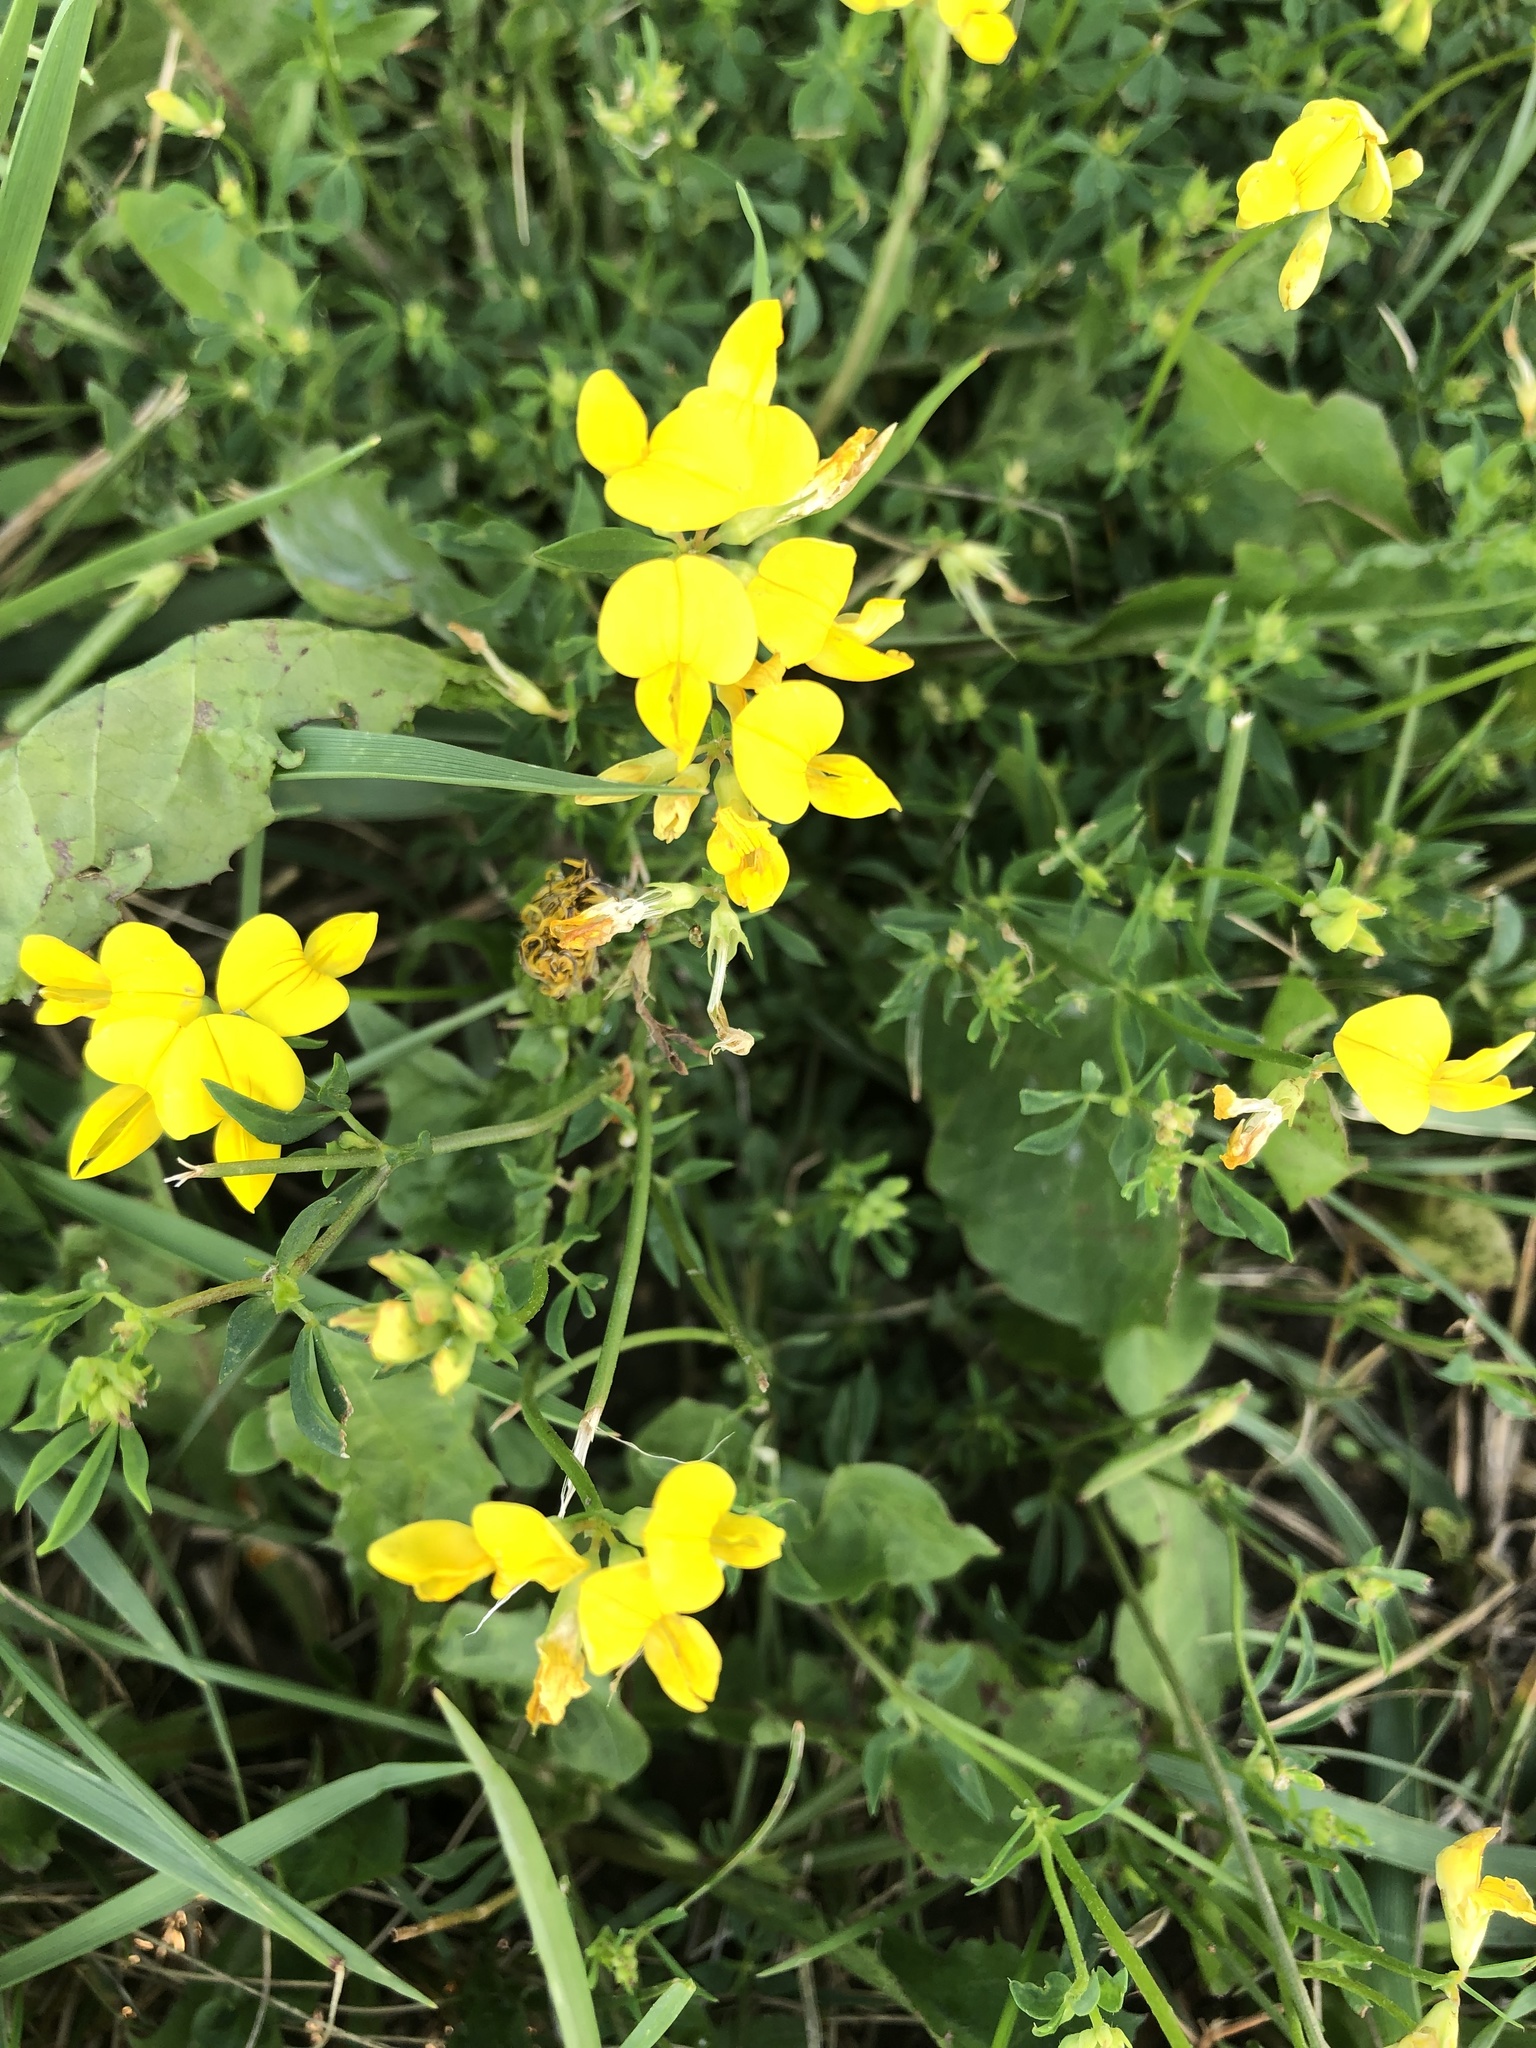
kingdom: Plantae
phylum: Tracheophyta
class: Magnoliopsida
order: Fabales
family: Fabaceae
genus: Lotus
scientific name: Lotus corniculatus
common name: Common bird's-foot-trefoil
